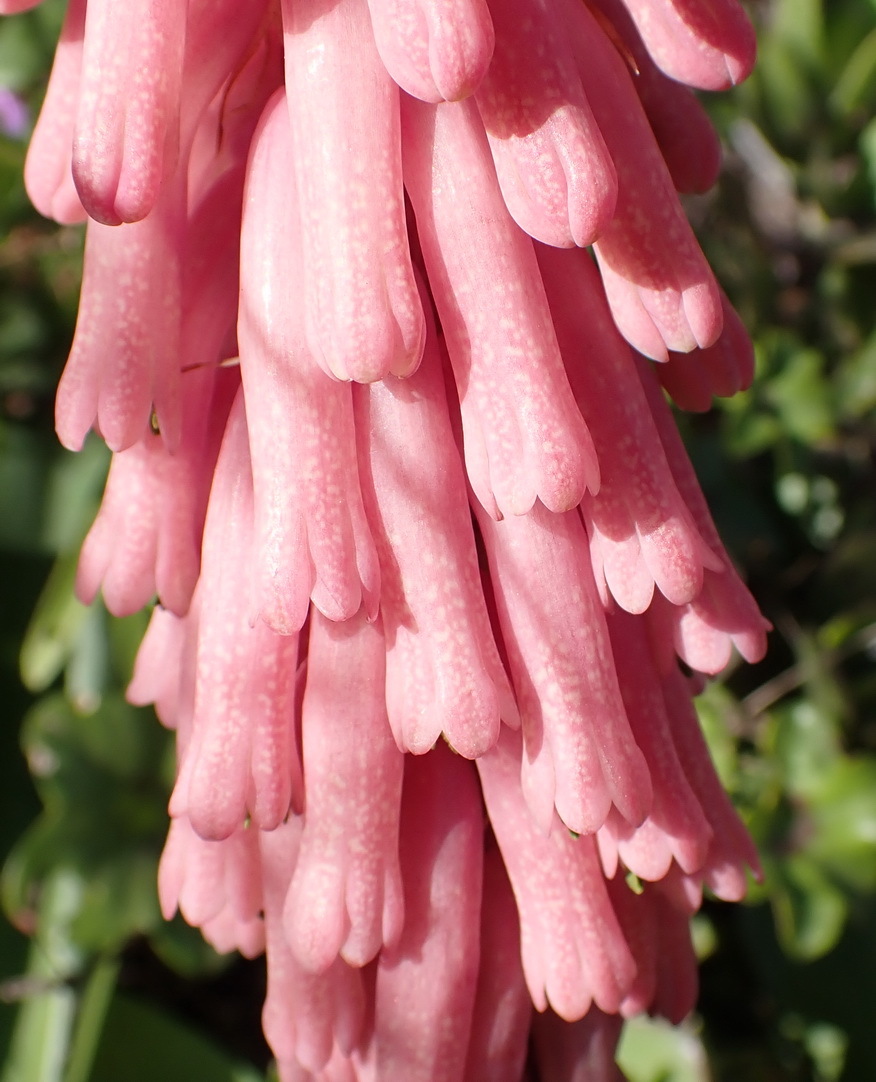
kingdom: Plantae
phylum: Tracheophyta
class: Liliopsida
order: Asparagales
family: Asparagaceae
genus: Veltheimia
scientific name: Veltheimia bracteata
